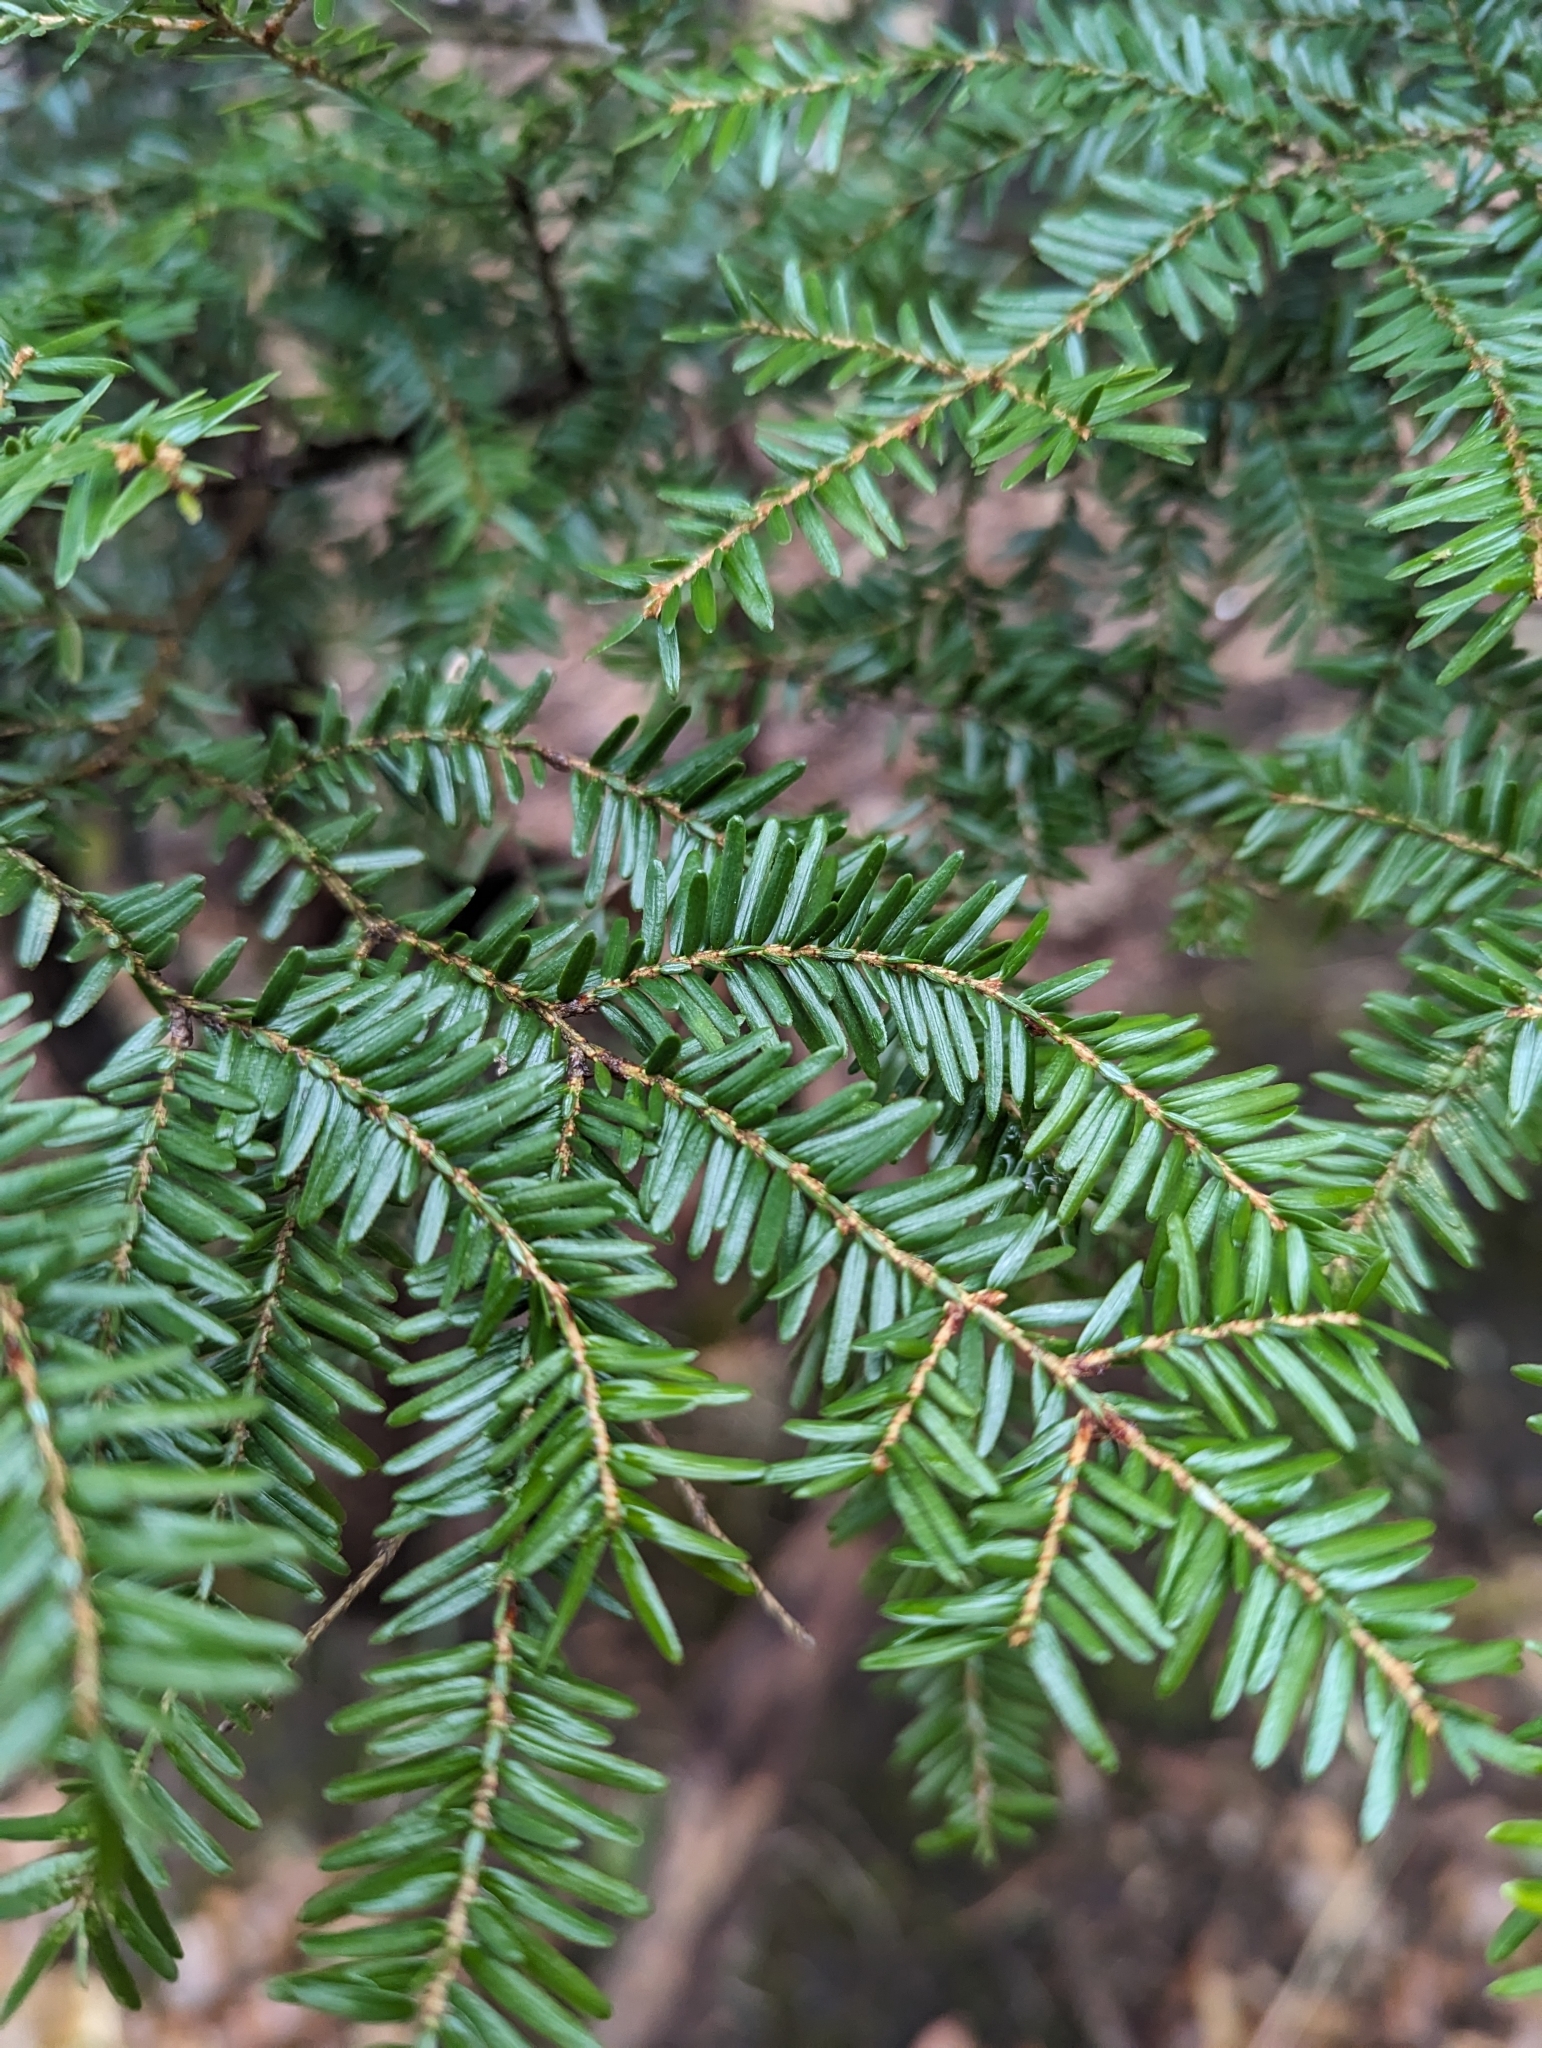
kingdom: Plantae
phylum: Tracheophyta
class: Pinopsida
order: Pinales
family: Pinaceae
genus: Tsuga
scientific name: Tsuga canadensis
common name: Eastern hemlock
